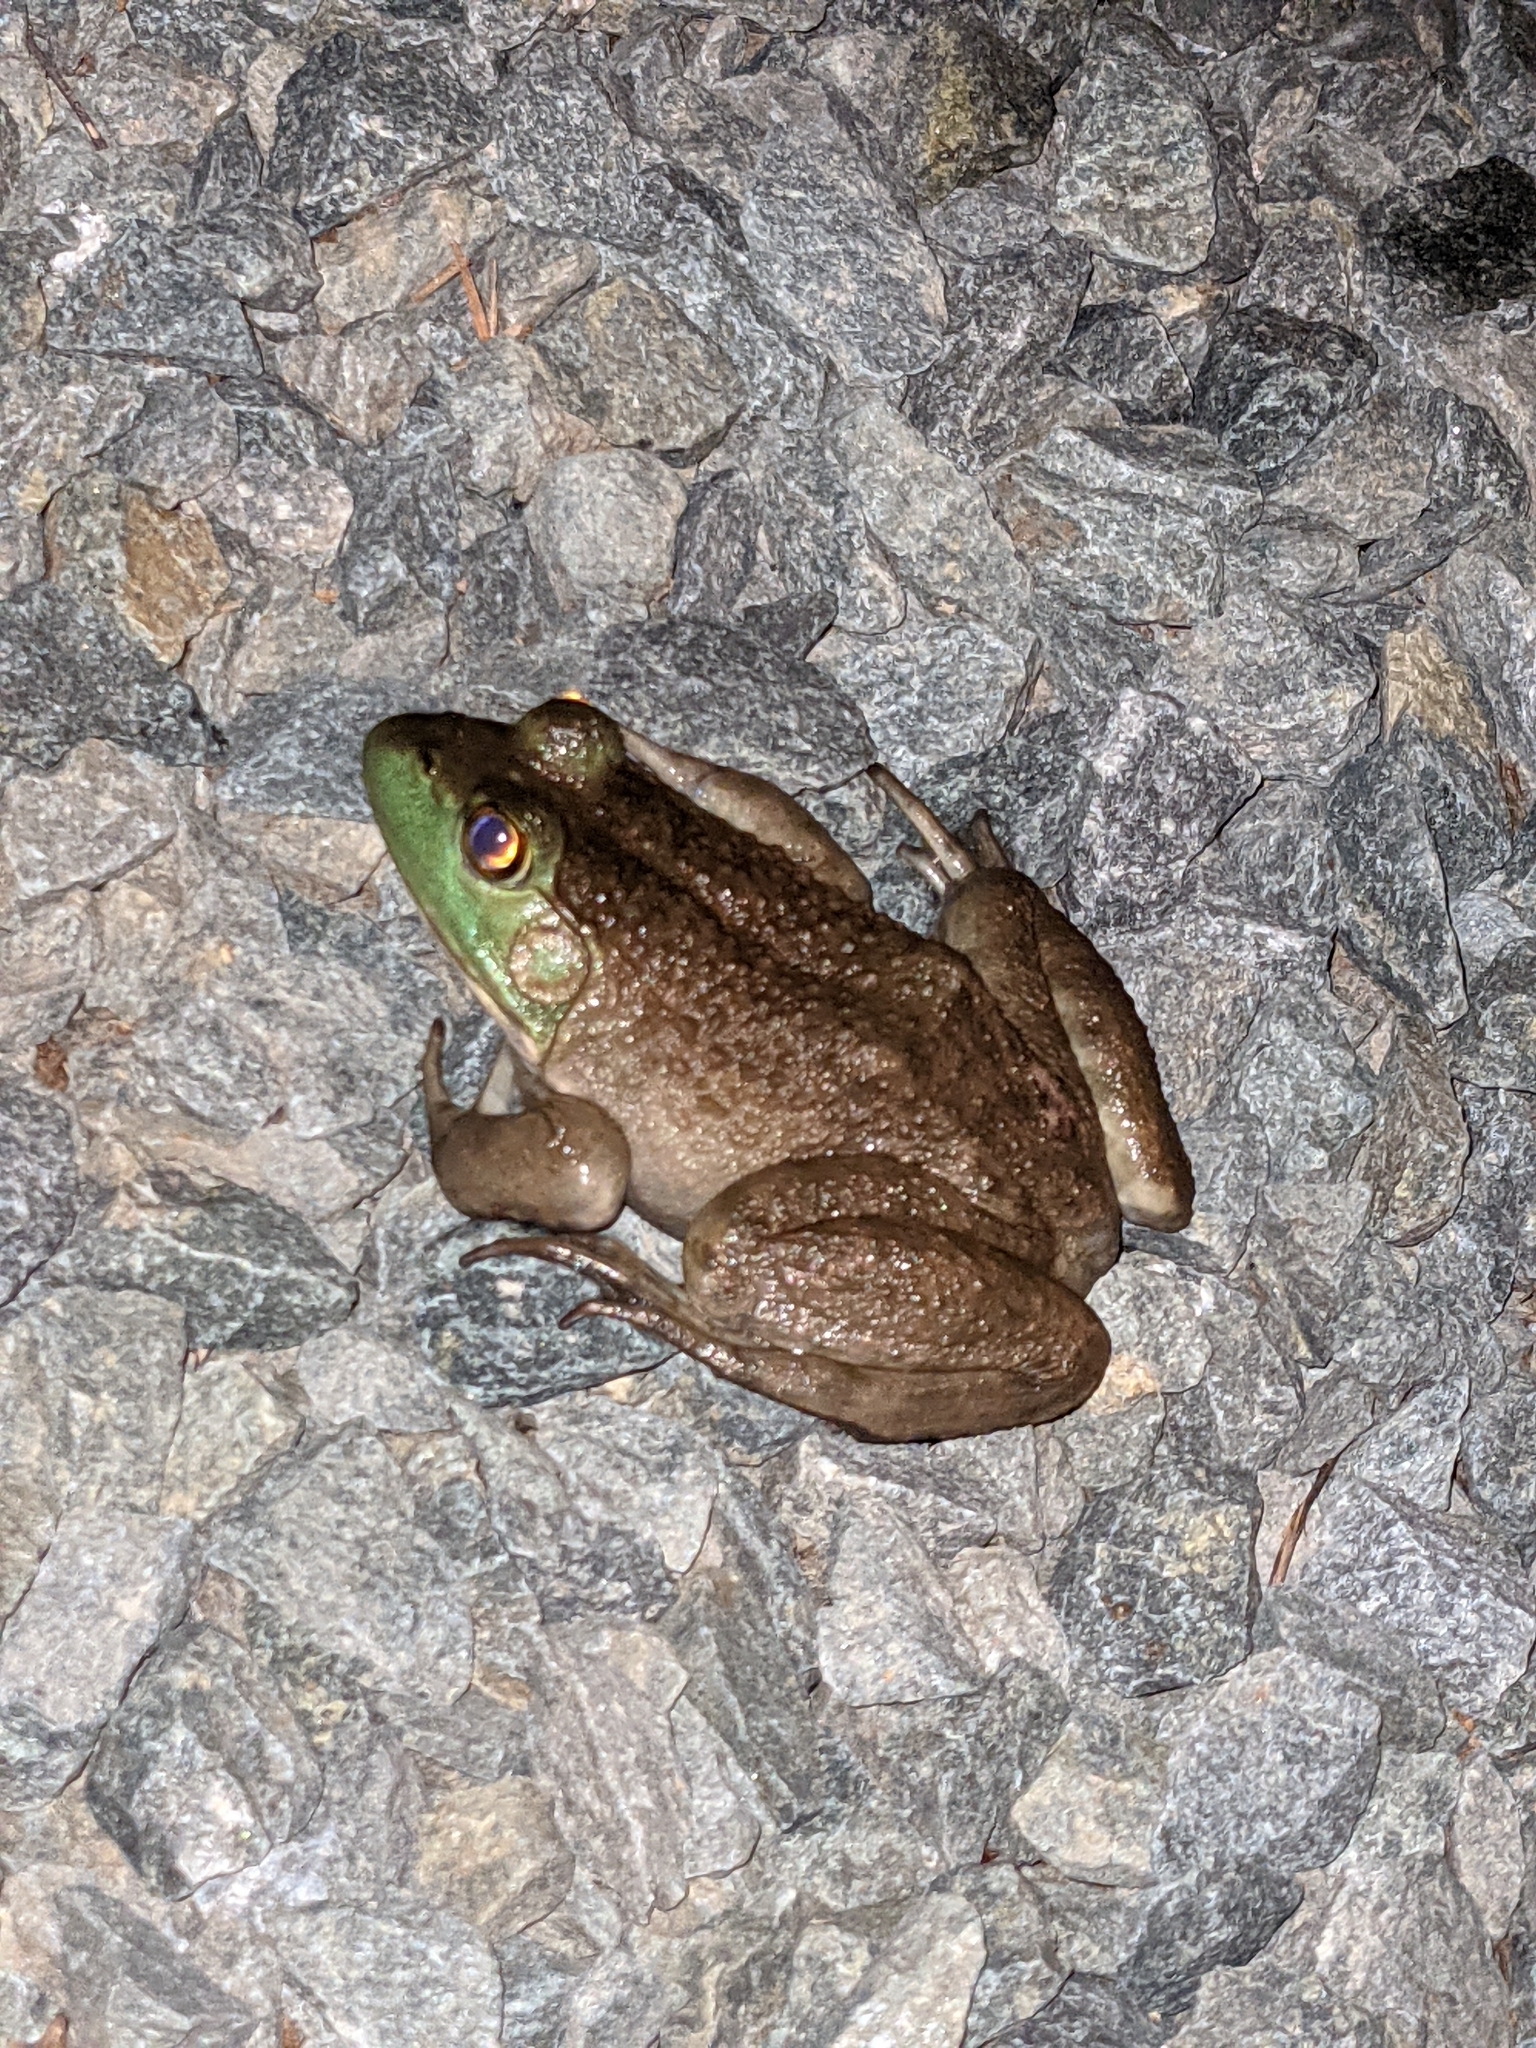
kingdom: Animalia
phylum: Chordata
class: Amphibia
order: Anura
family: Ranidae
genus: Lithobates
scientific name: Lithobates catesbeianus
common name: American bullfrog
